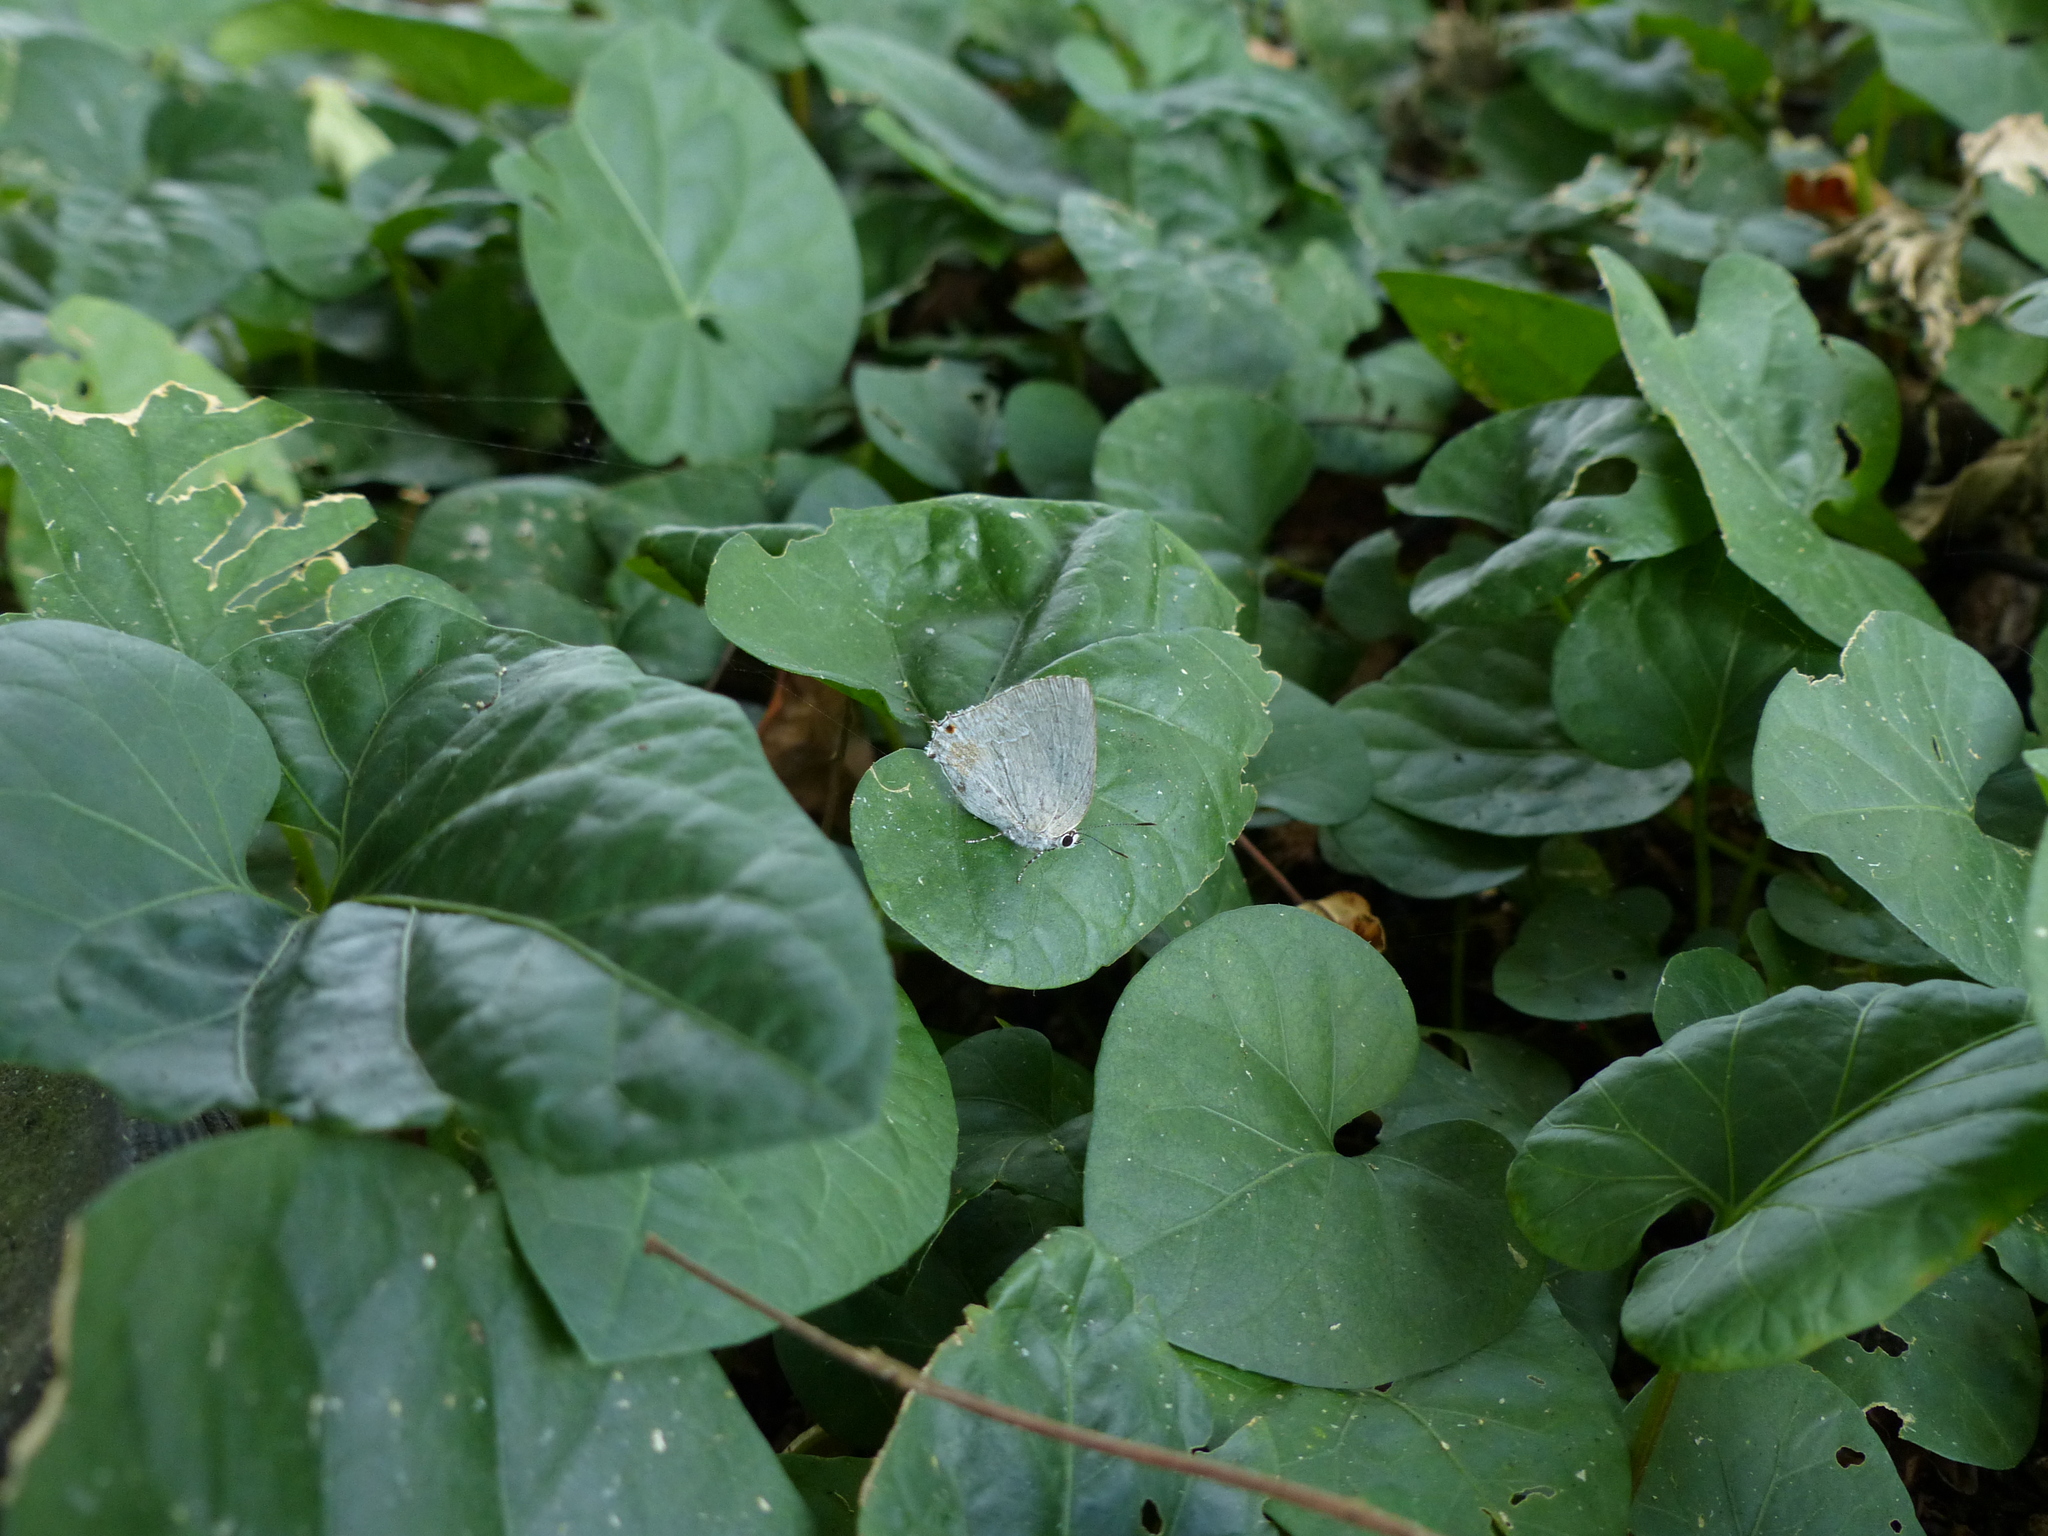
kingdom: Animalia
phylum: Arthropoda
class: Insecta
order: Lepidoptera
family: Lycaenidae
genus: Strephonota
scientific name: Strephonota tephraeus
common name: Pearly-gray hairstreak
